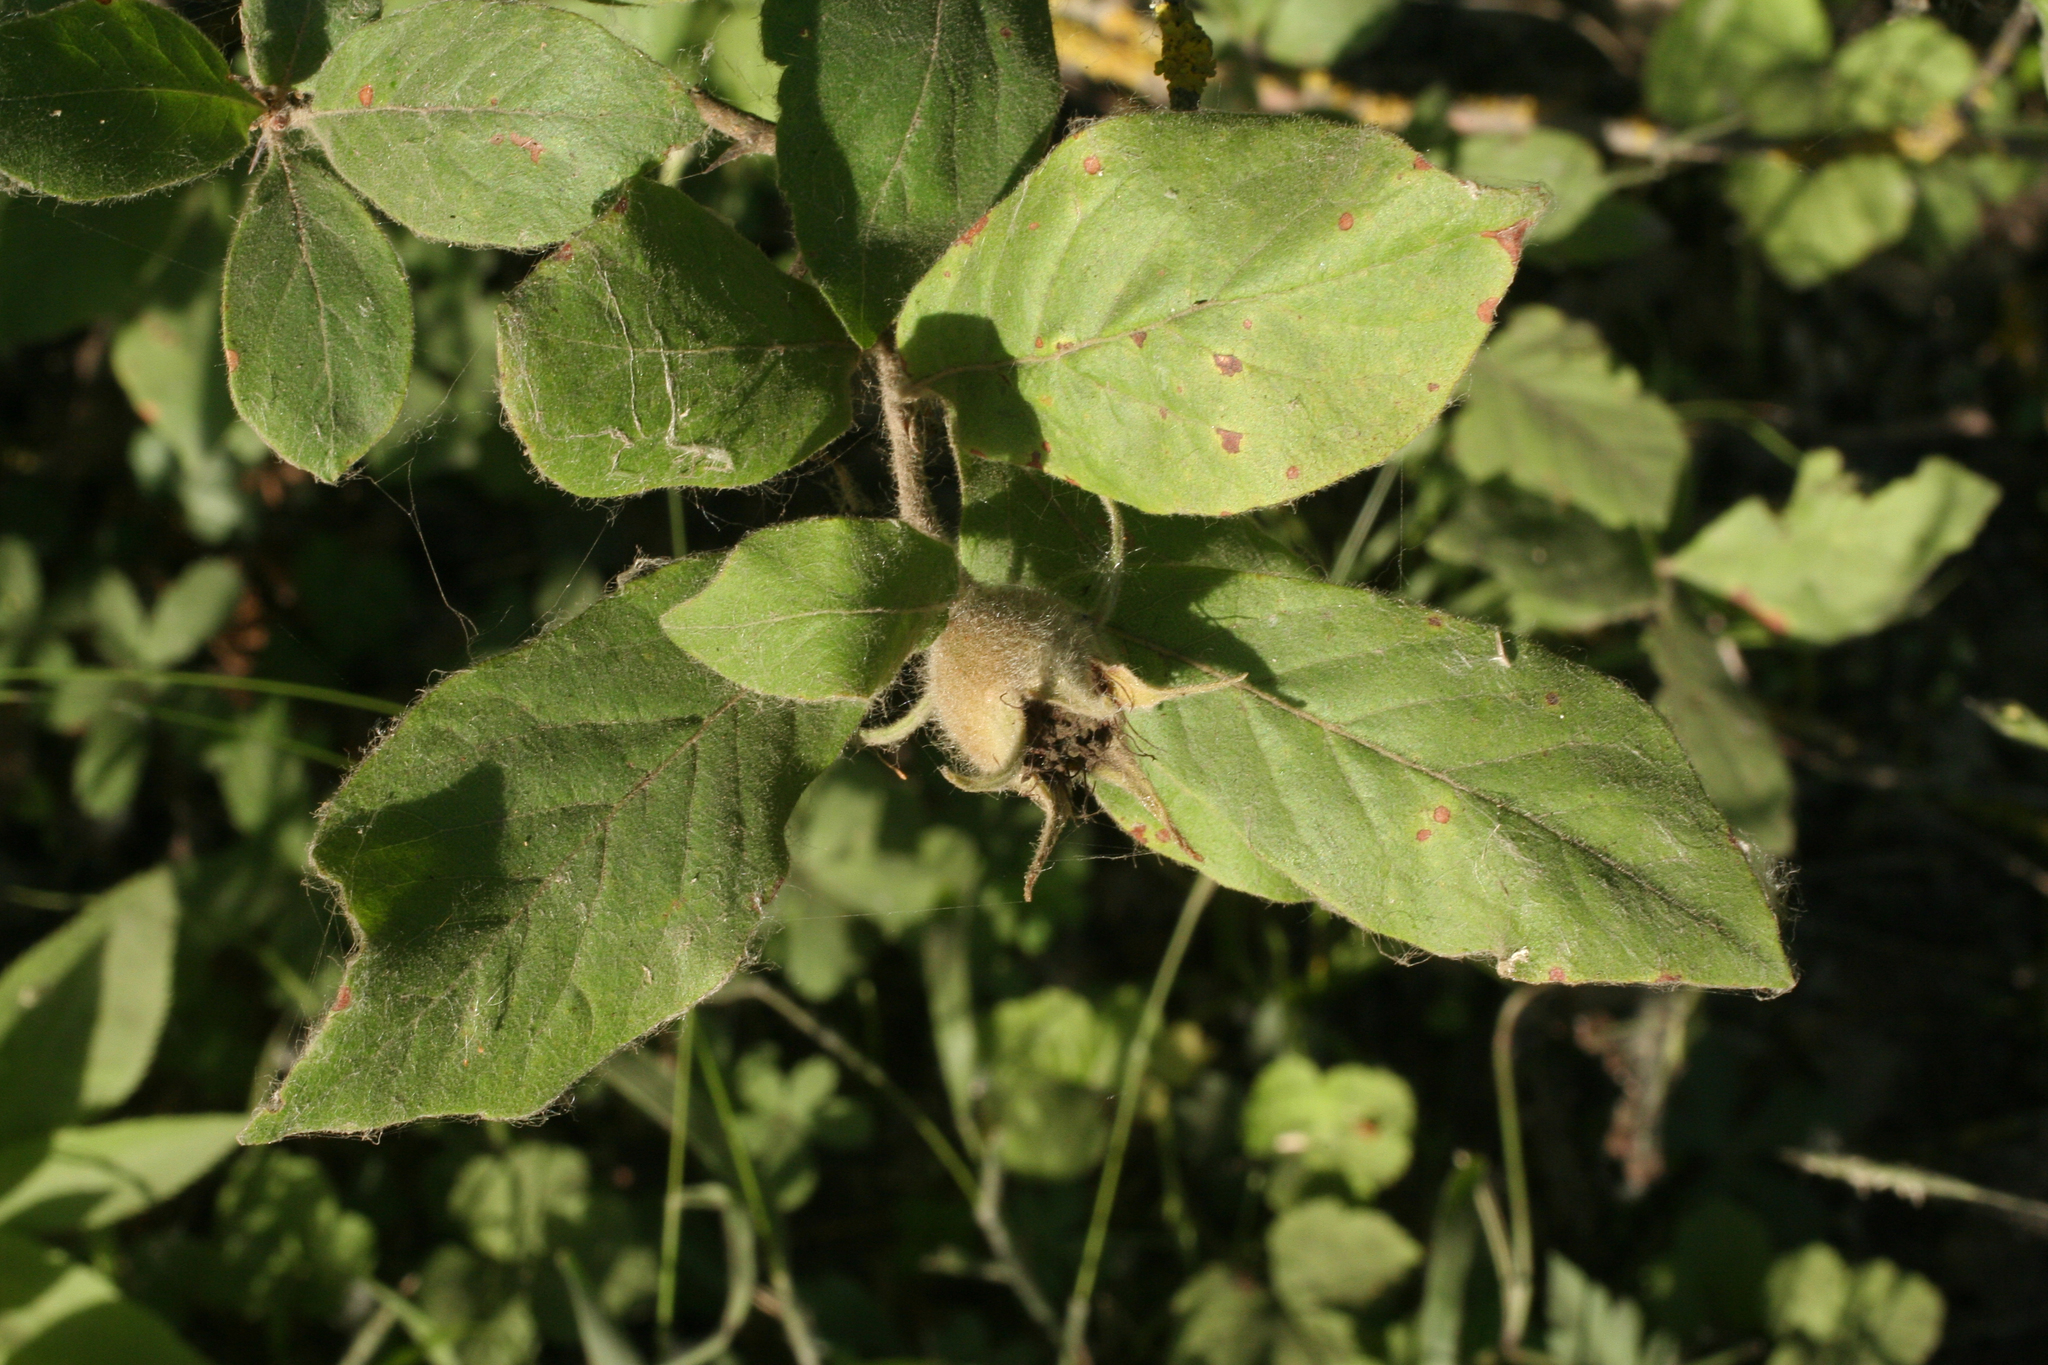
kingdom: Plantae
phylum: Tracheophyta
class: Magnoliopsida
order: Rosales
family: Rosaceae
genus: Mespilus
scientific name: Mespilus germanica
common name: Medlar
